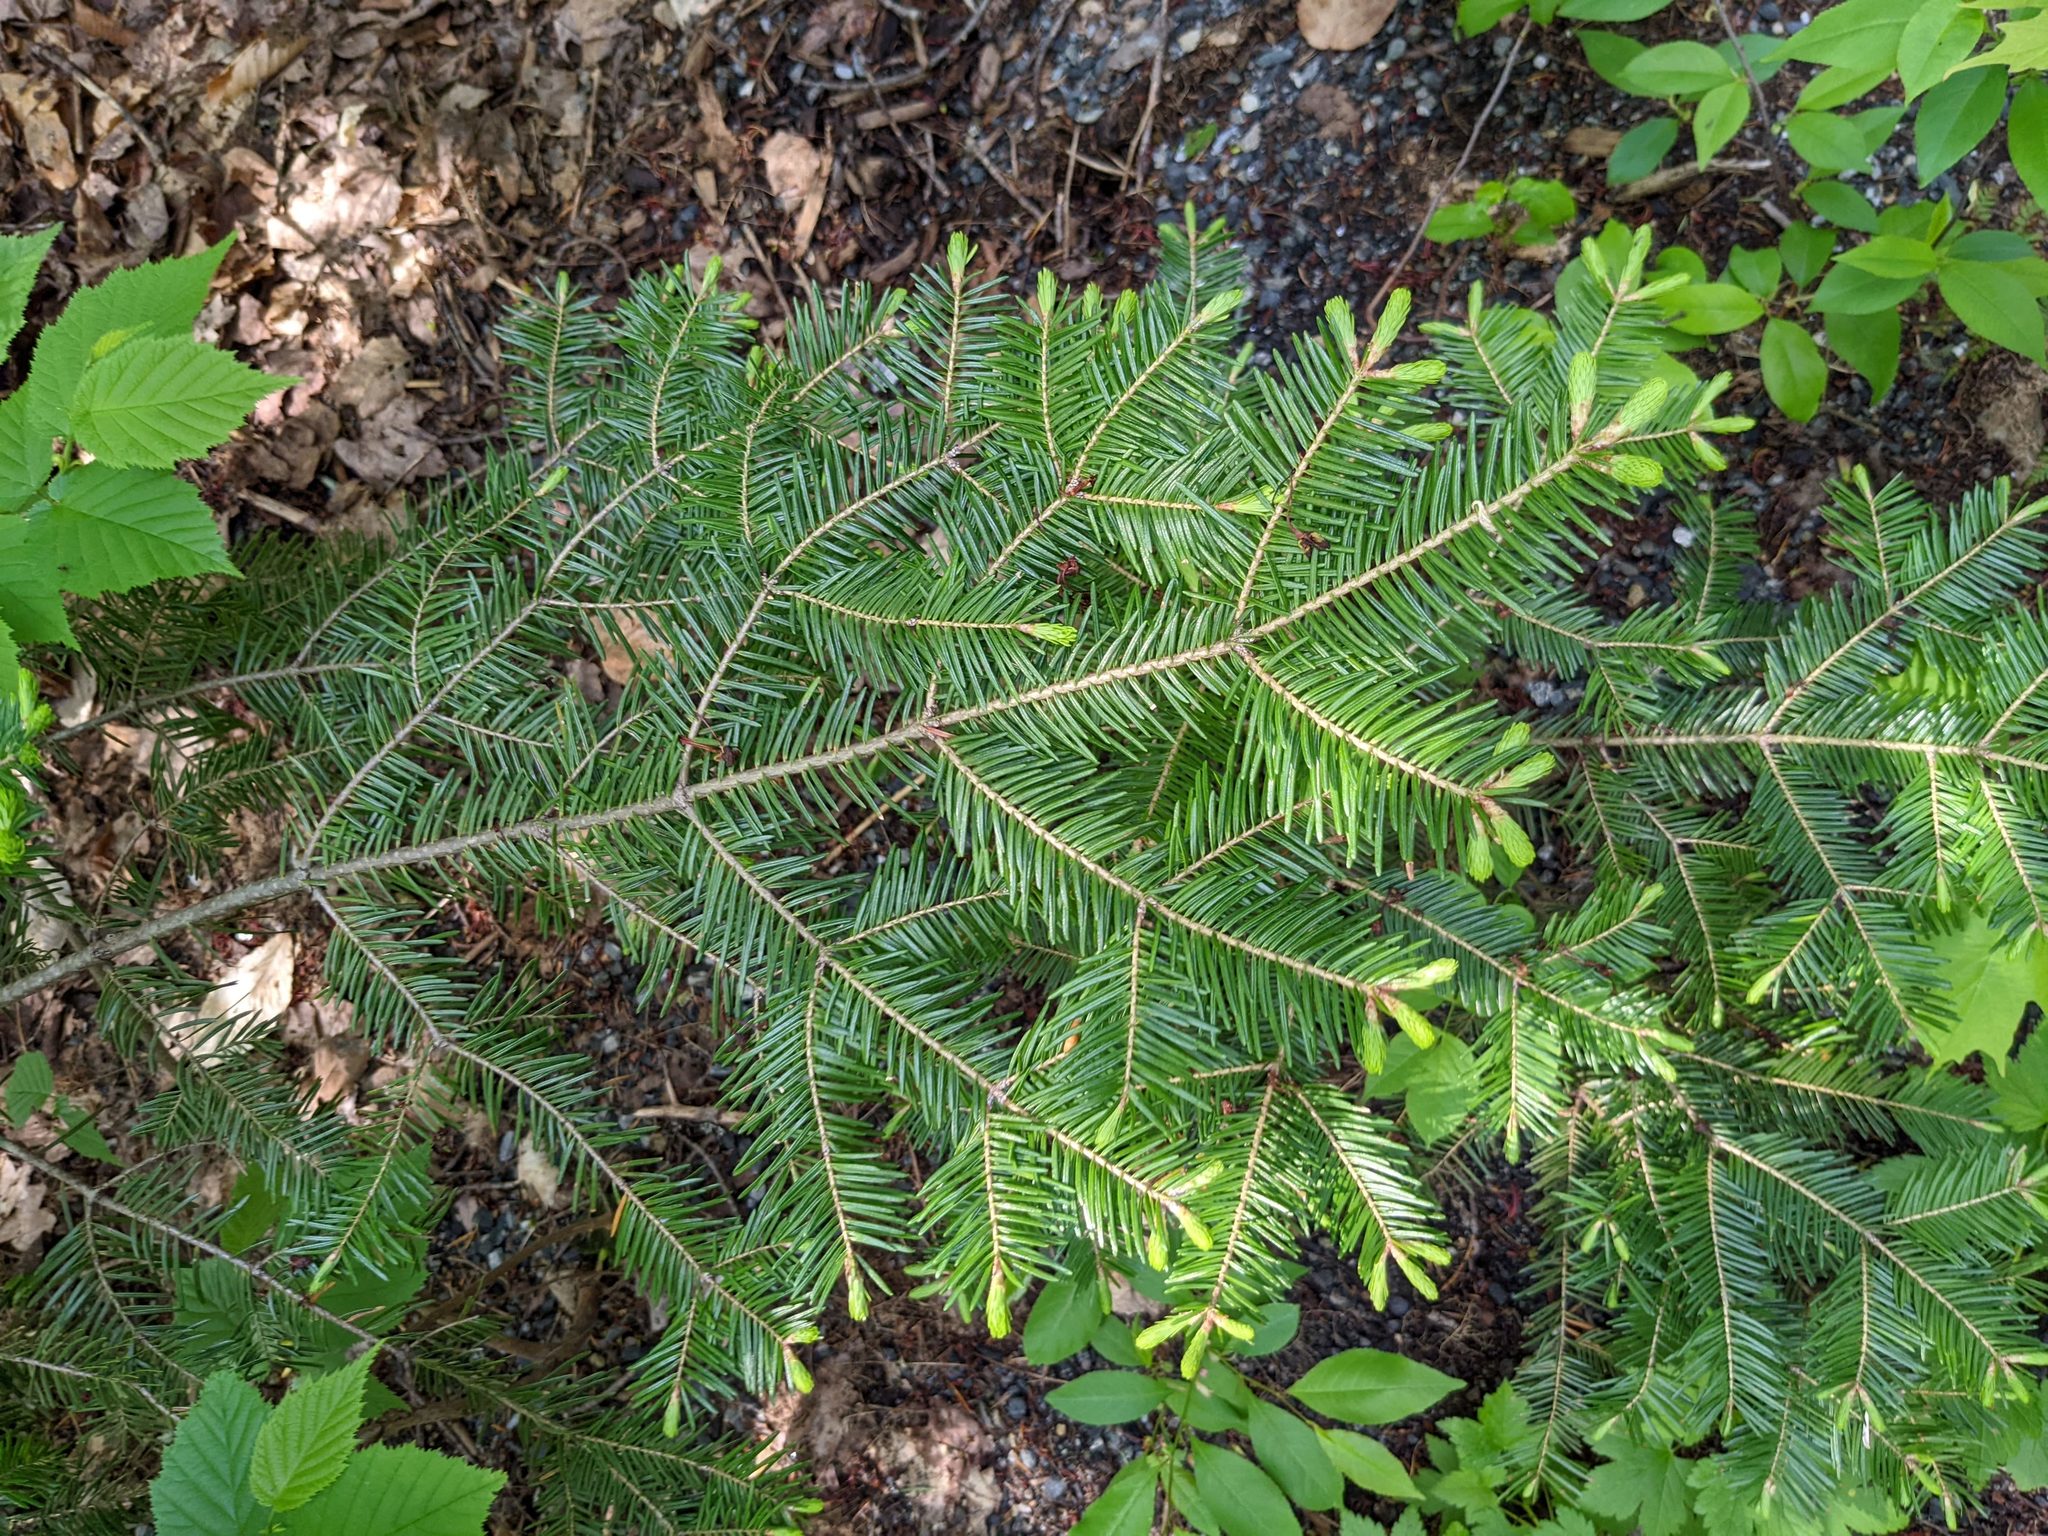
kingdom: Plantae
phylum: Tracheophyta
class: Pinopsida
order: Pinales
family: Pinaceae
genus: Abies
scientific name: Abies balsamea
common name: Balsam fir
